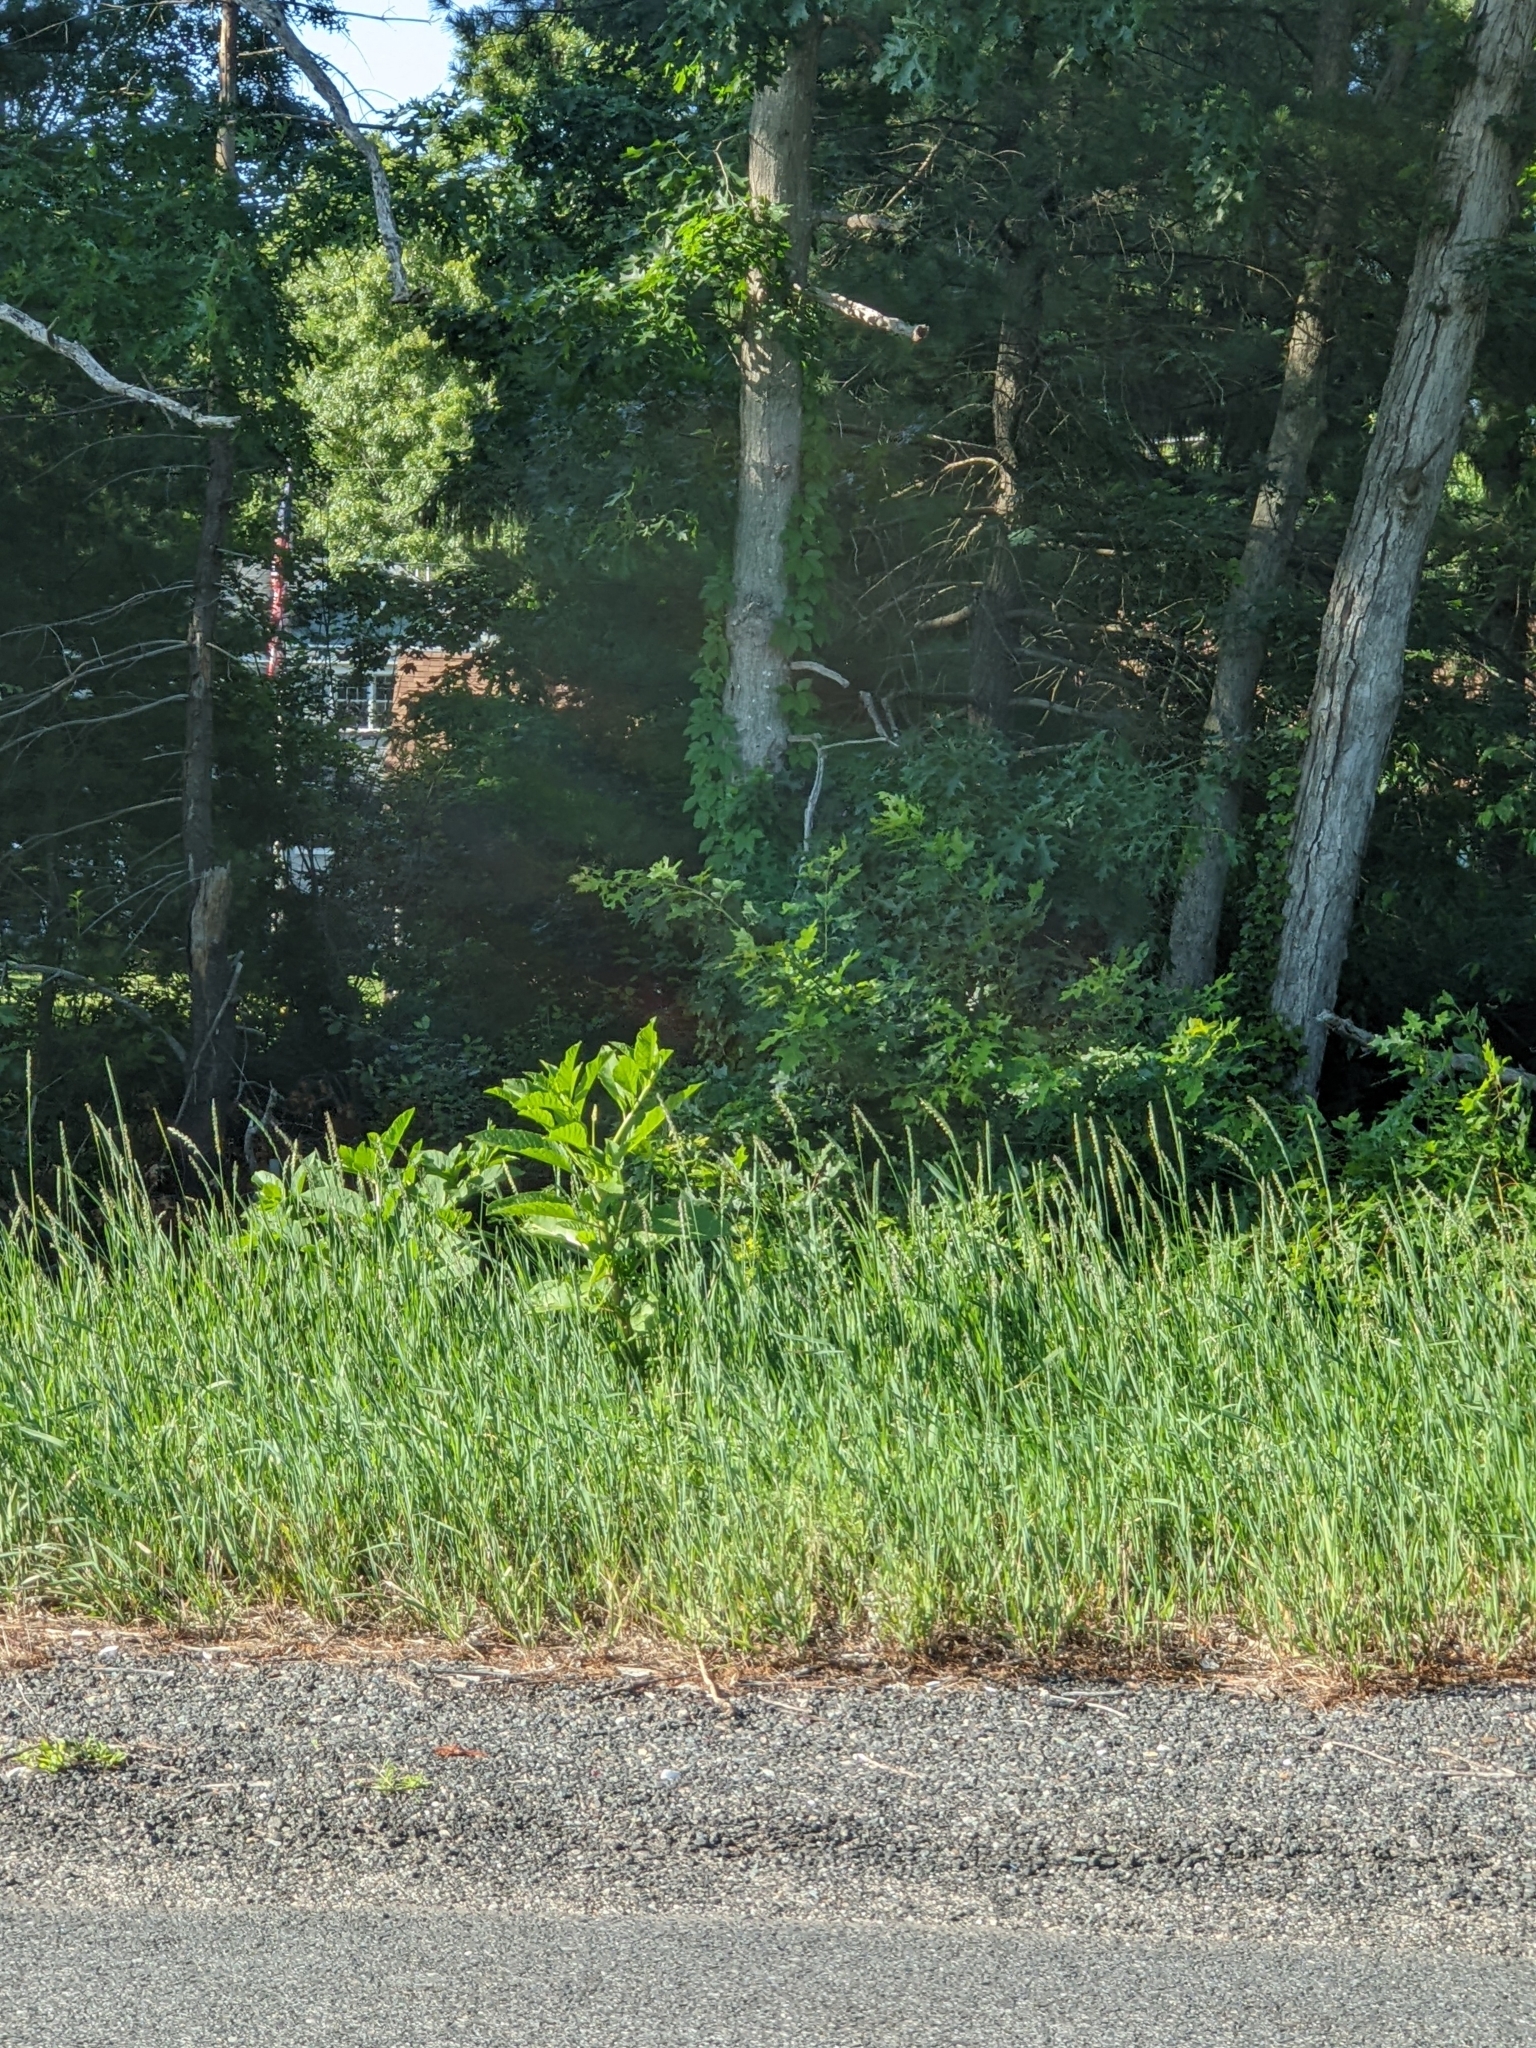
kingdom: Plantae
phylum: Tracheophyta
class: Magnoliopsida
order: Caryophyllales
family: Phytolaccaceae
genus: Phytolacca
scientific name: Phytolacca americana
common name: American pokeweed
